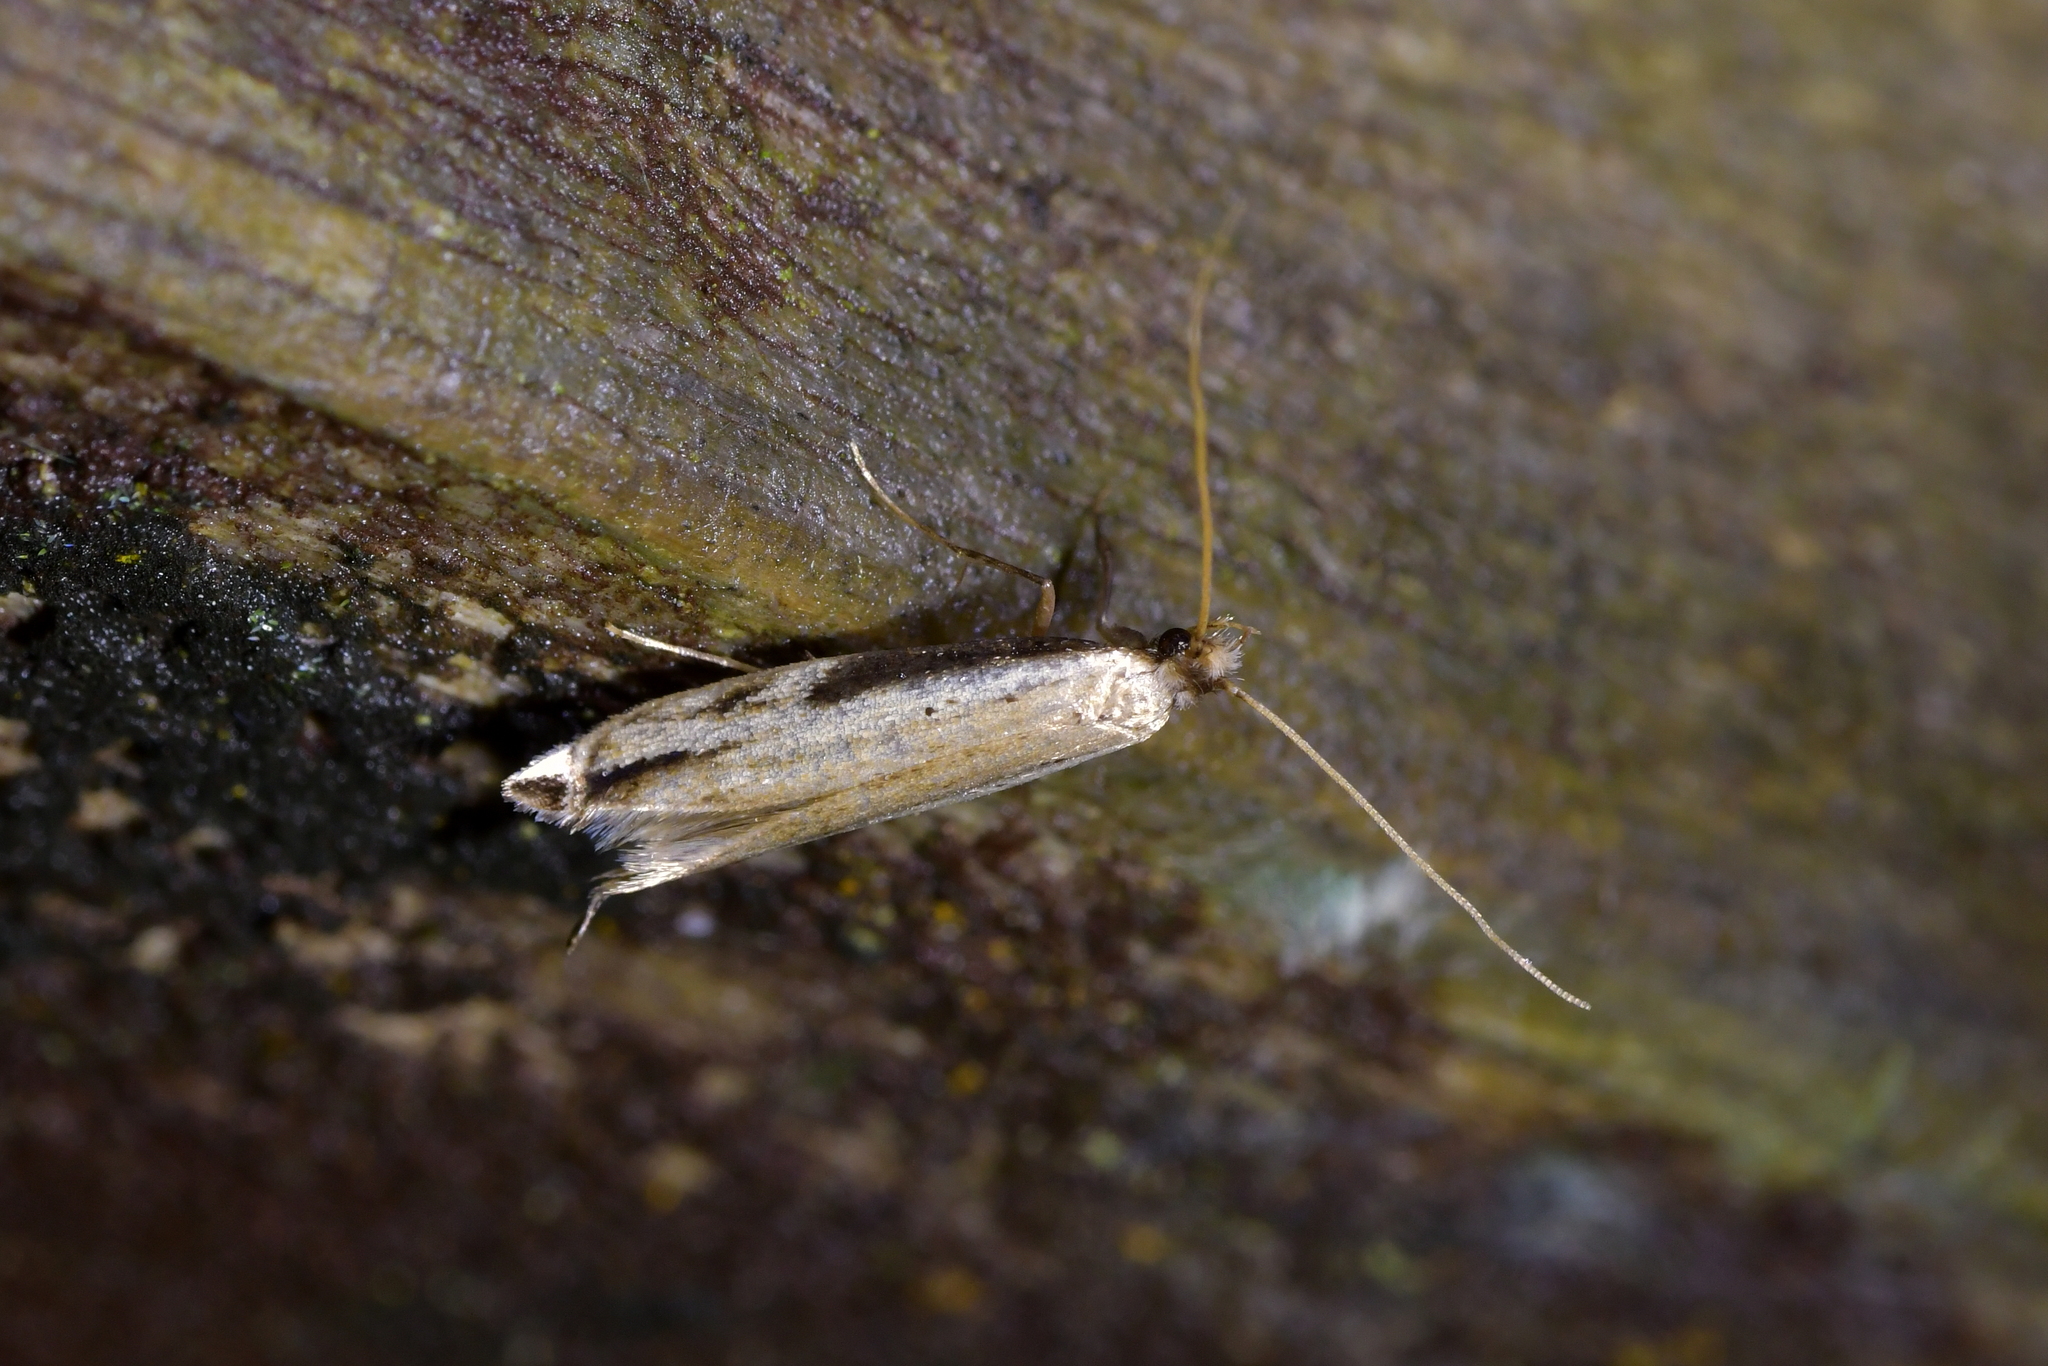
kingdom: Animalia
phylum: Arthropoda
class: Insecta
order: Lepidoptera
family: Tineidae
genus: Erechthias
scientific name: Erechthias hemiclistra
